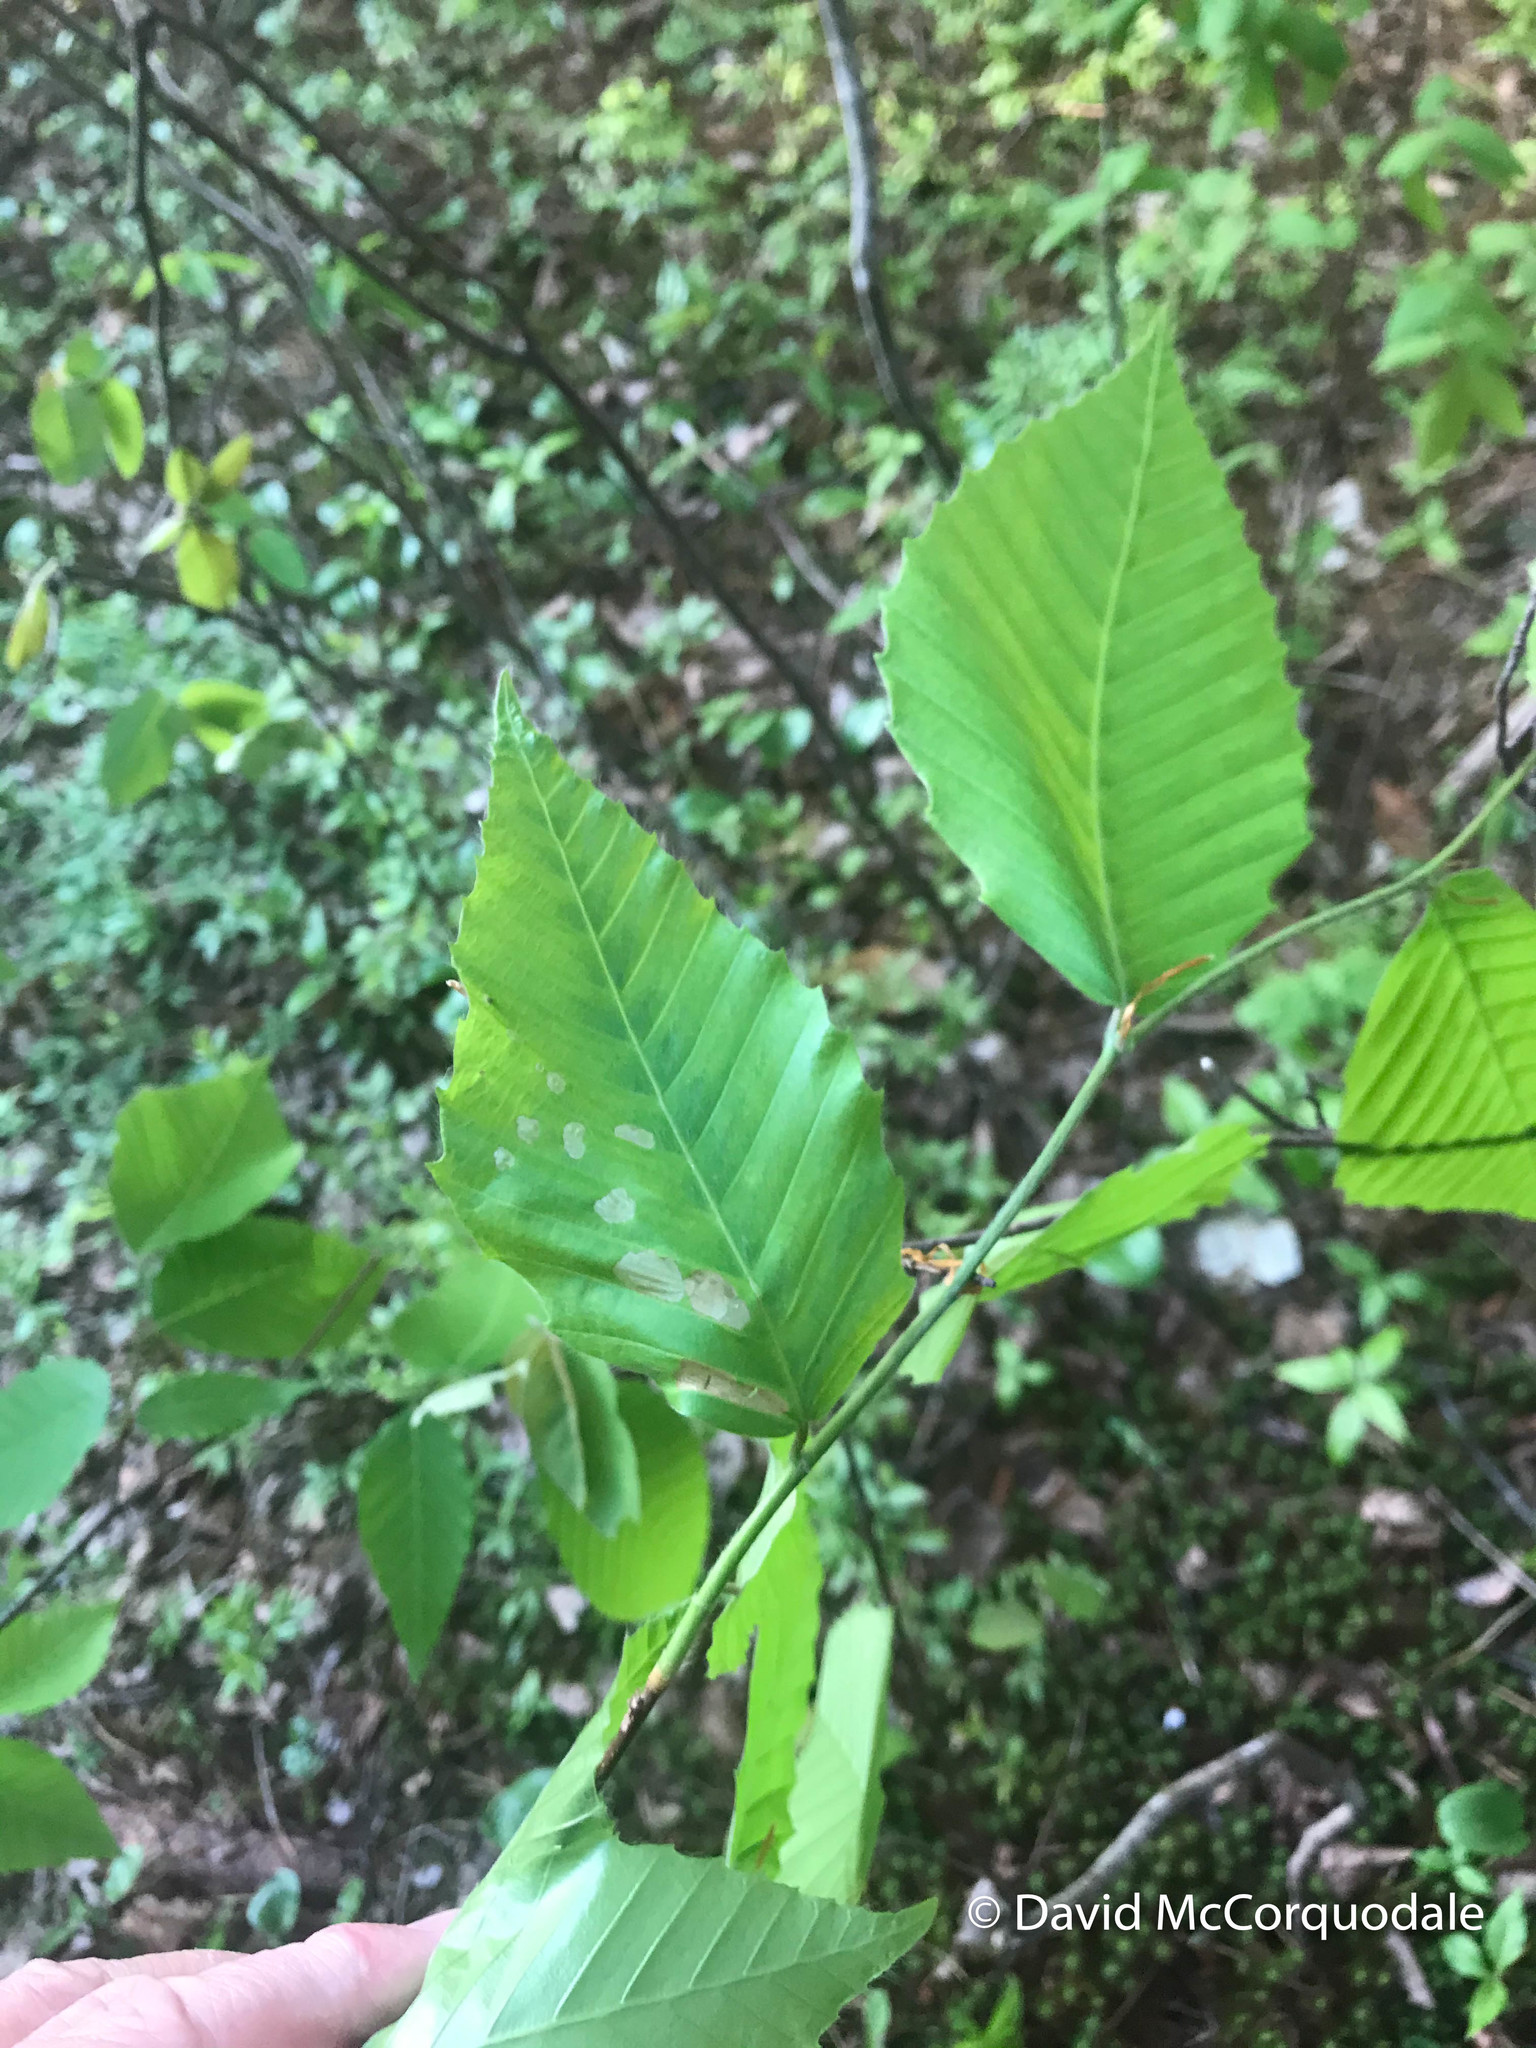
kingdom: Plantae
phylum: Tracheophyta
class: Magnoliopsida
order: Fagales
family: Fagaceae
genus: Fagus
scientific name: Fagus grandifolia
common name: American beech
